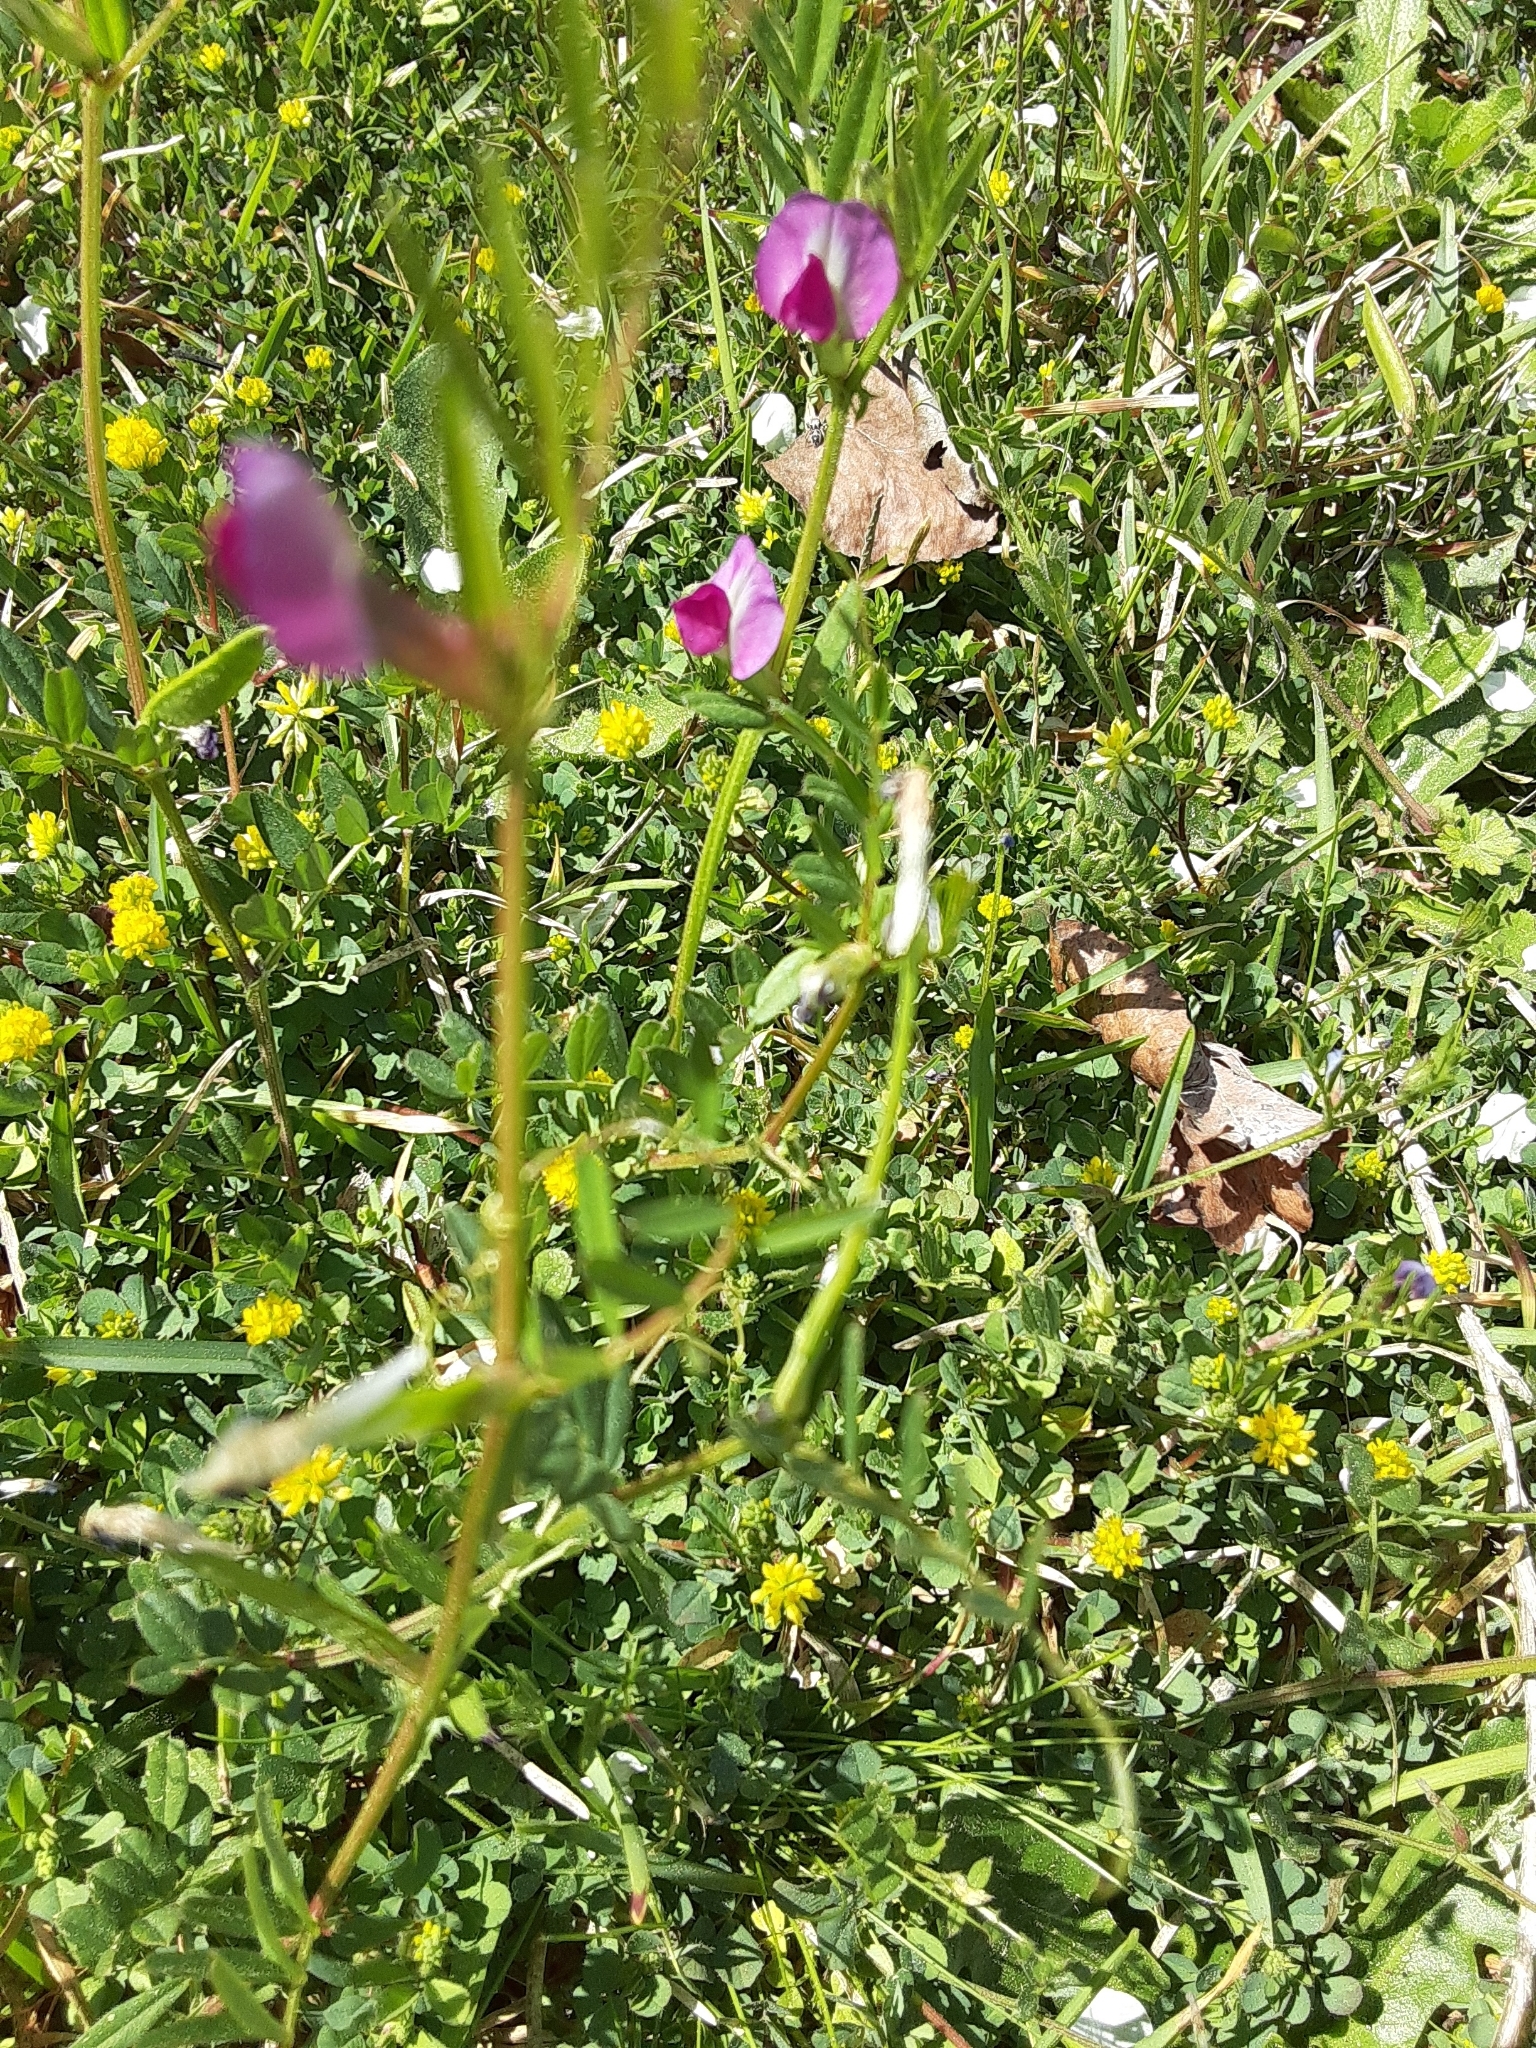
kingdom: Plantae
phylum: Tracheophyta
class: Magnoliopsida
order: Fabales
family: Fabaceae
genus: Vicia
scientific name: Vicia sativa
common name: Garden vetch
